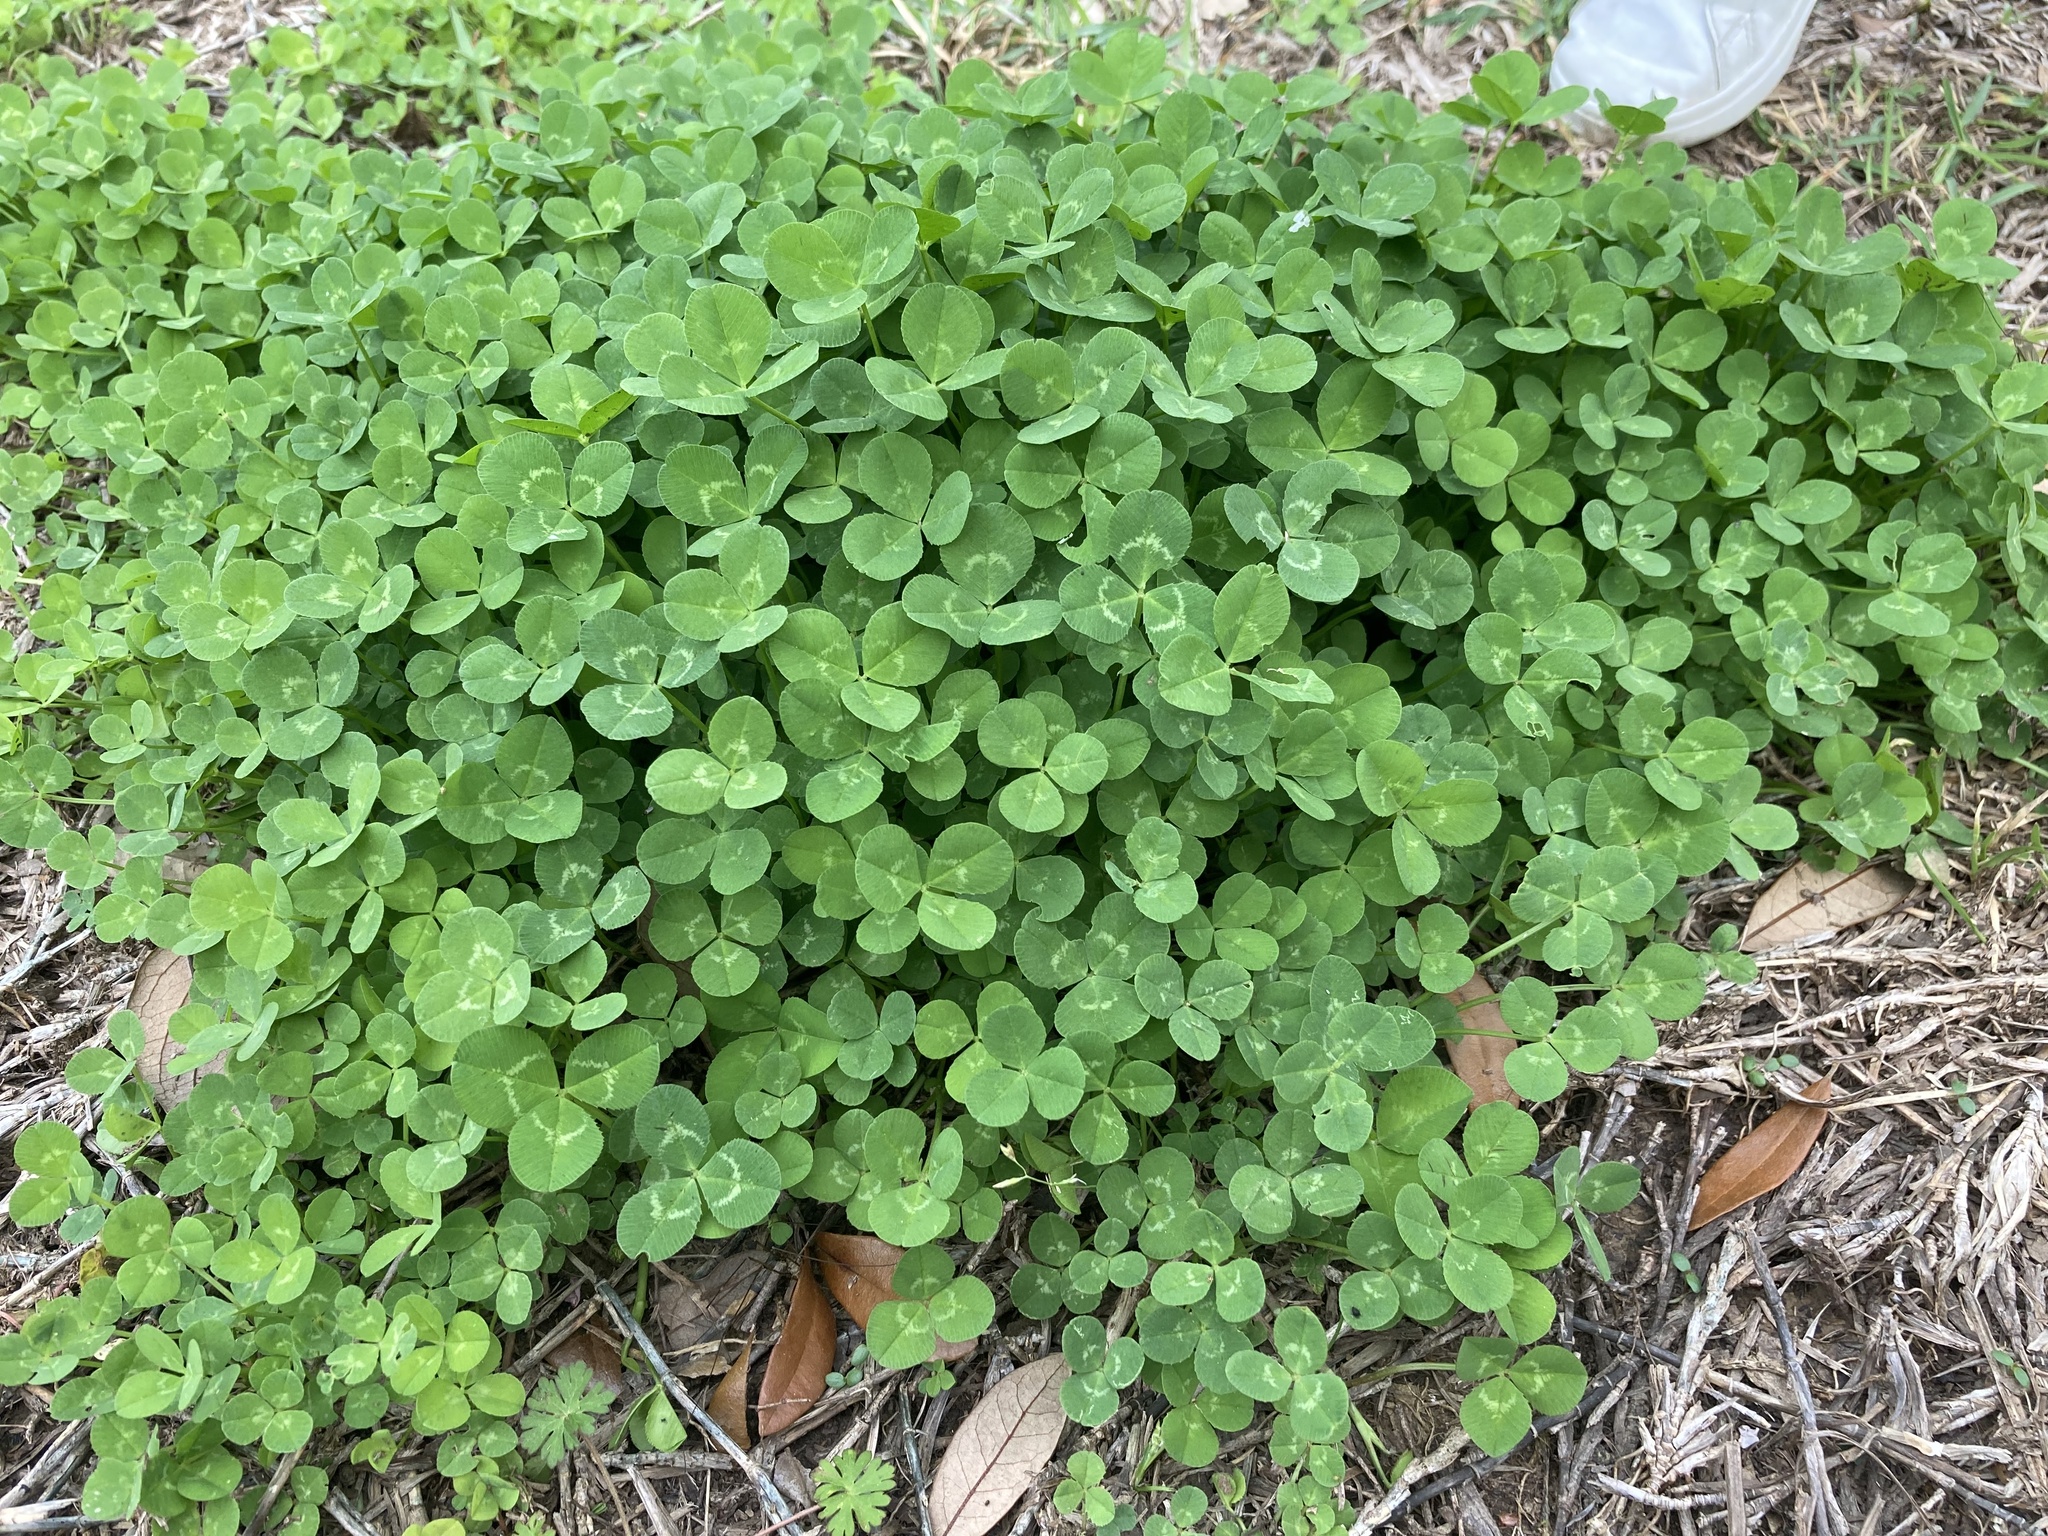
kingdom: Plantae
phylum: Tracheophyta
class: Magnoliopsida
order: Fabales
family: Fabaceae
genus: Trifolium
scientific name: Trifolium repens
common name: White clover
